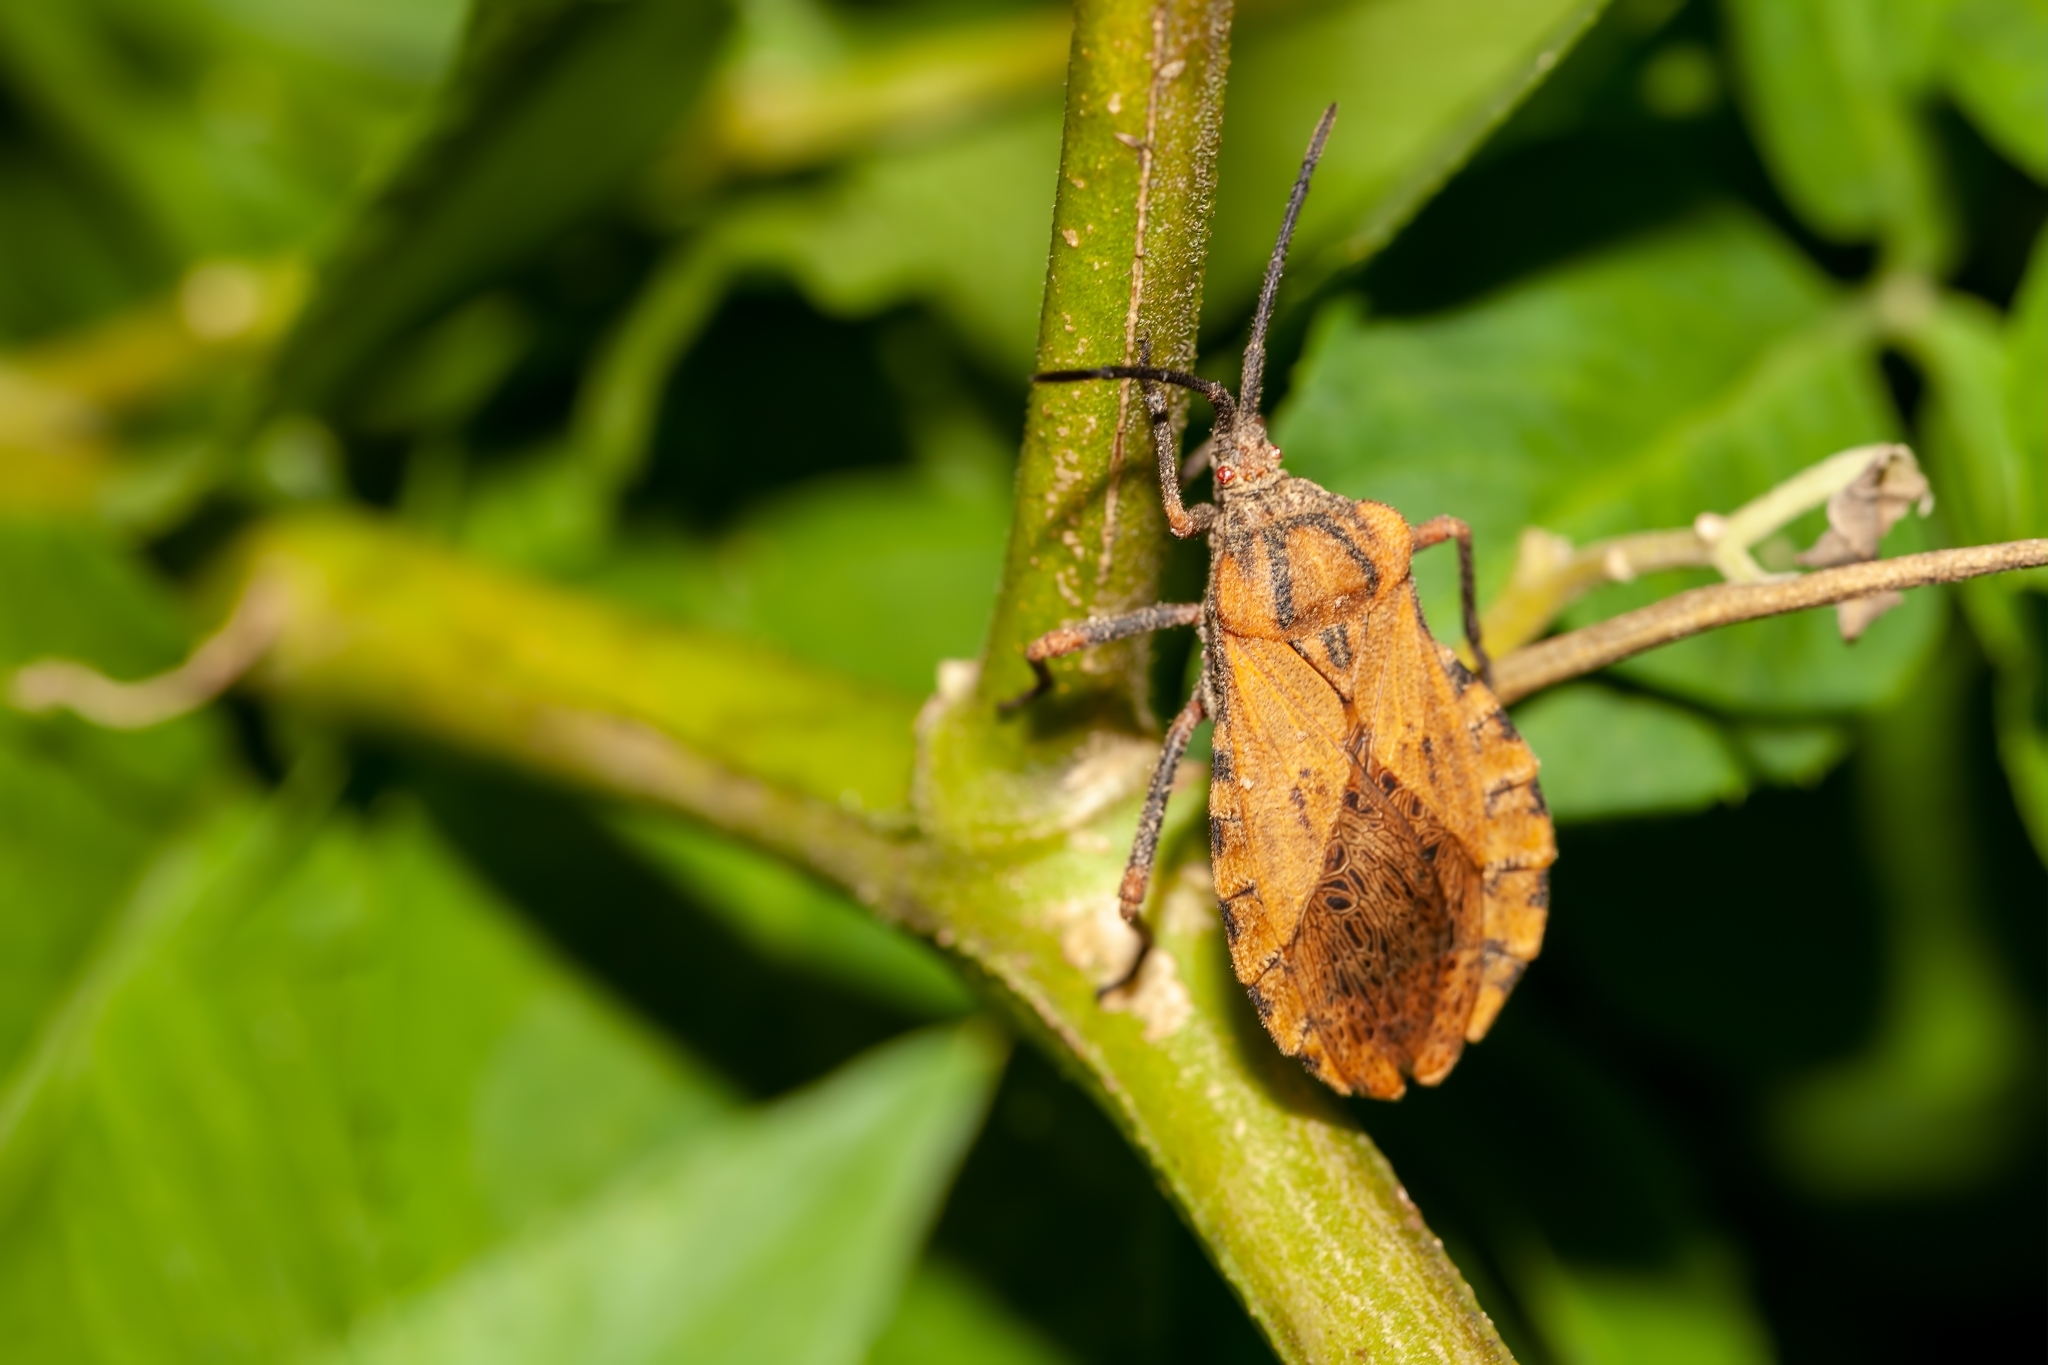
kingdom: Animalia
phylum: Arthropoda
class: Insecta
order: Hemiptera
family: Coreidae
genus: Spartocera
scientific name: Spartocera fusca
